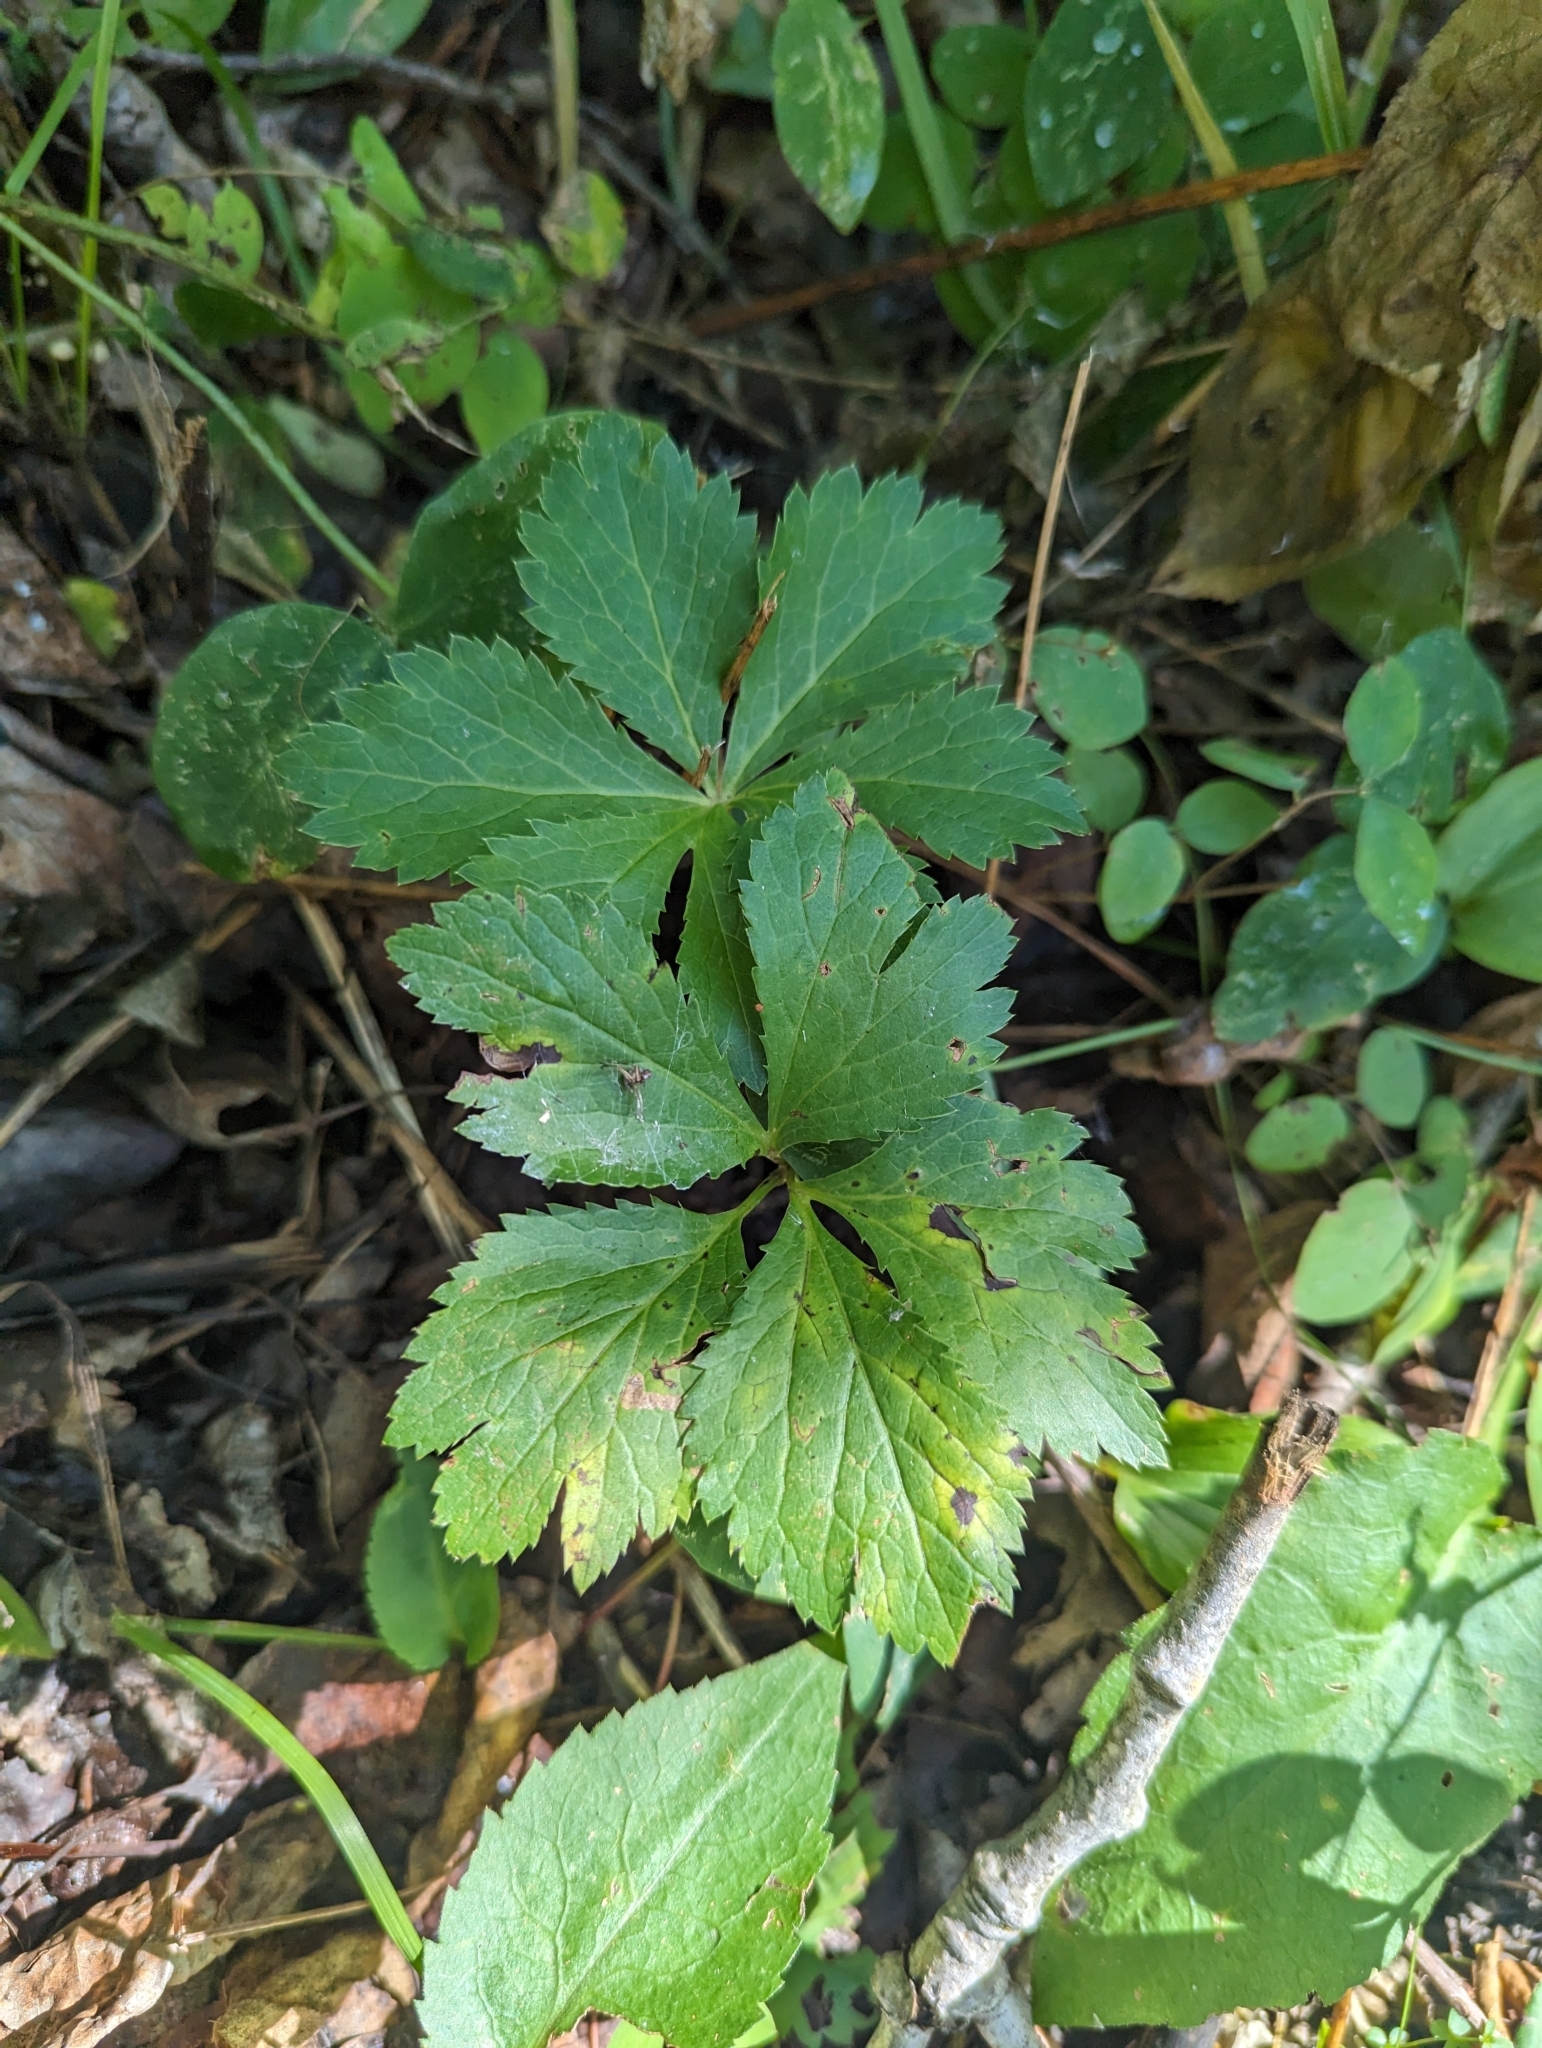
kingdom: Plantae
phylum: Tracheophyta
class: Magnoliopsida
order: Apiales
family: Apiaceae
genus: Sanicula
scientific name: Sanicula marilandica
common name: Black snakeroot
